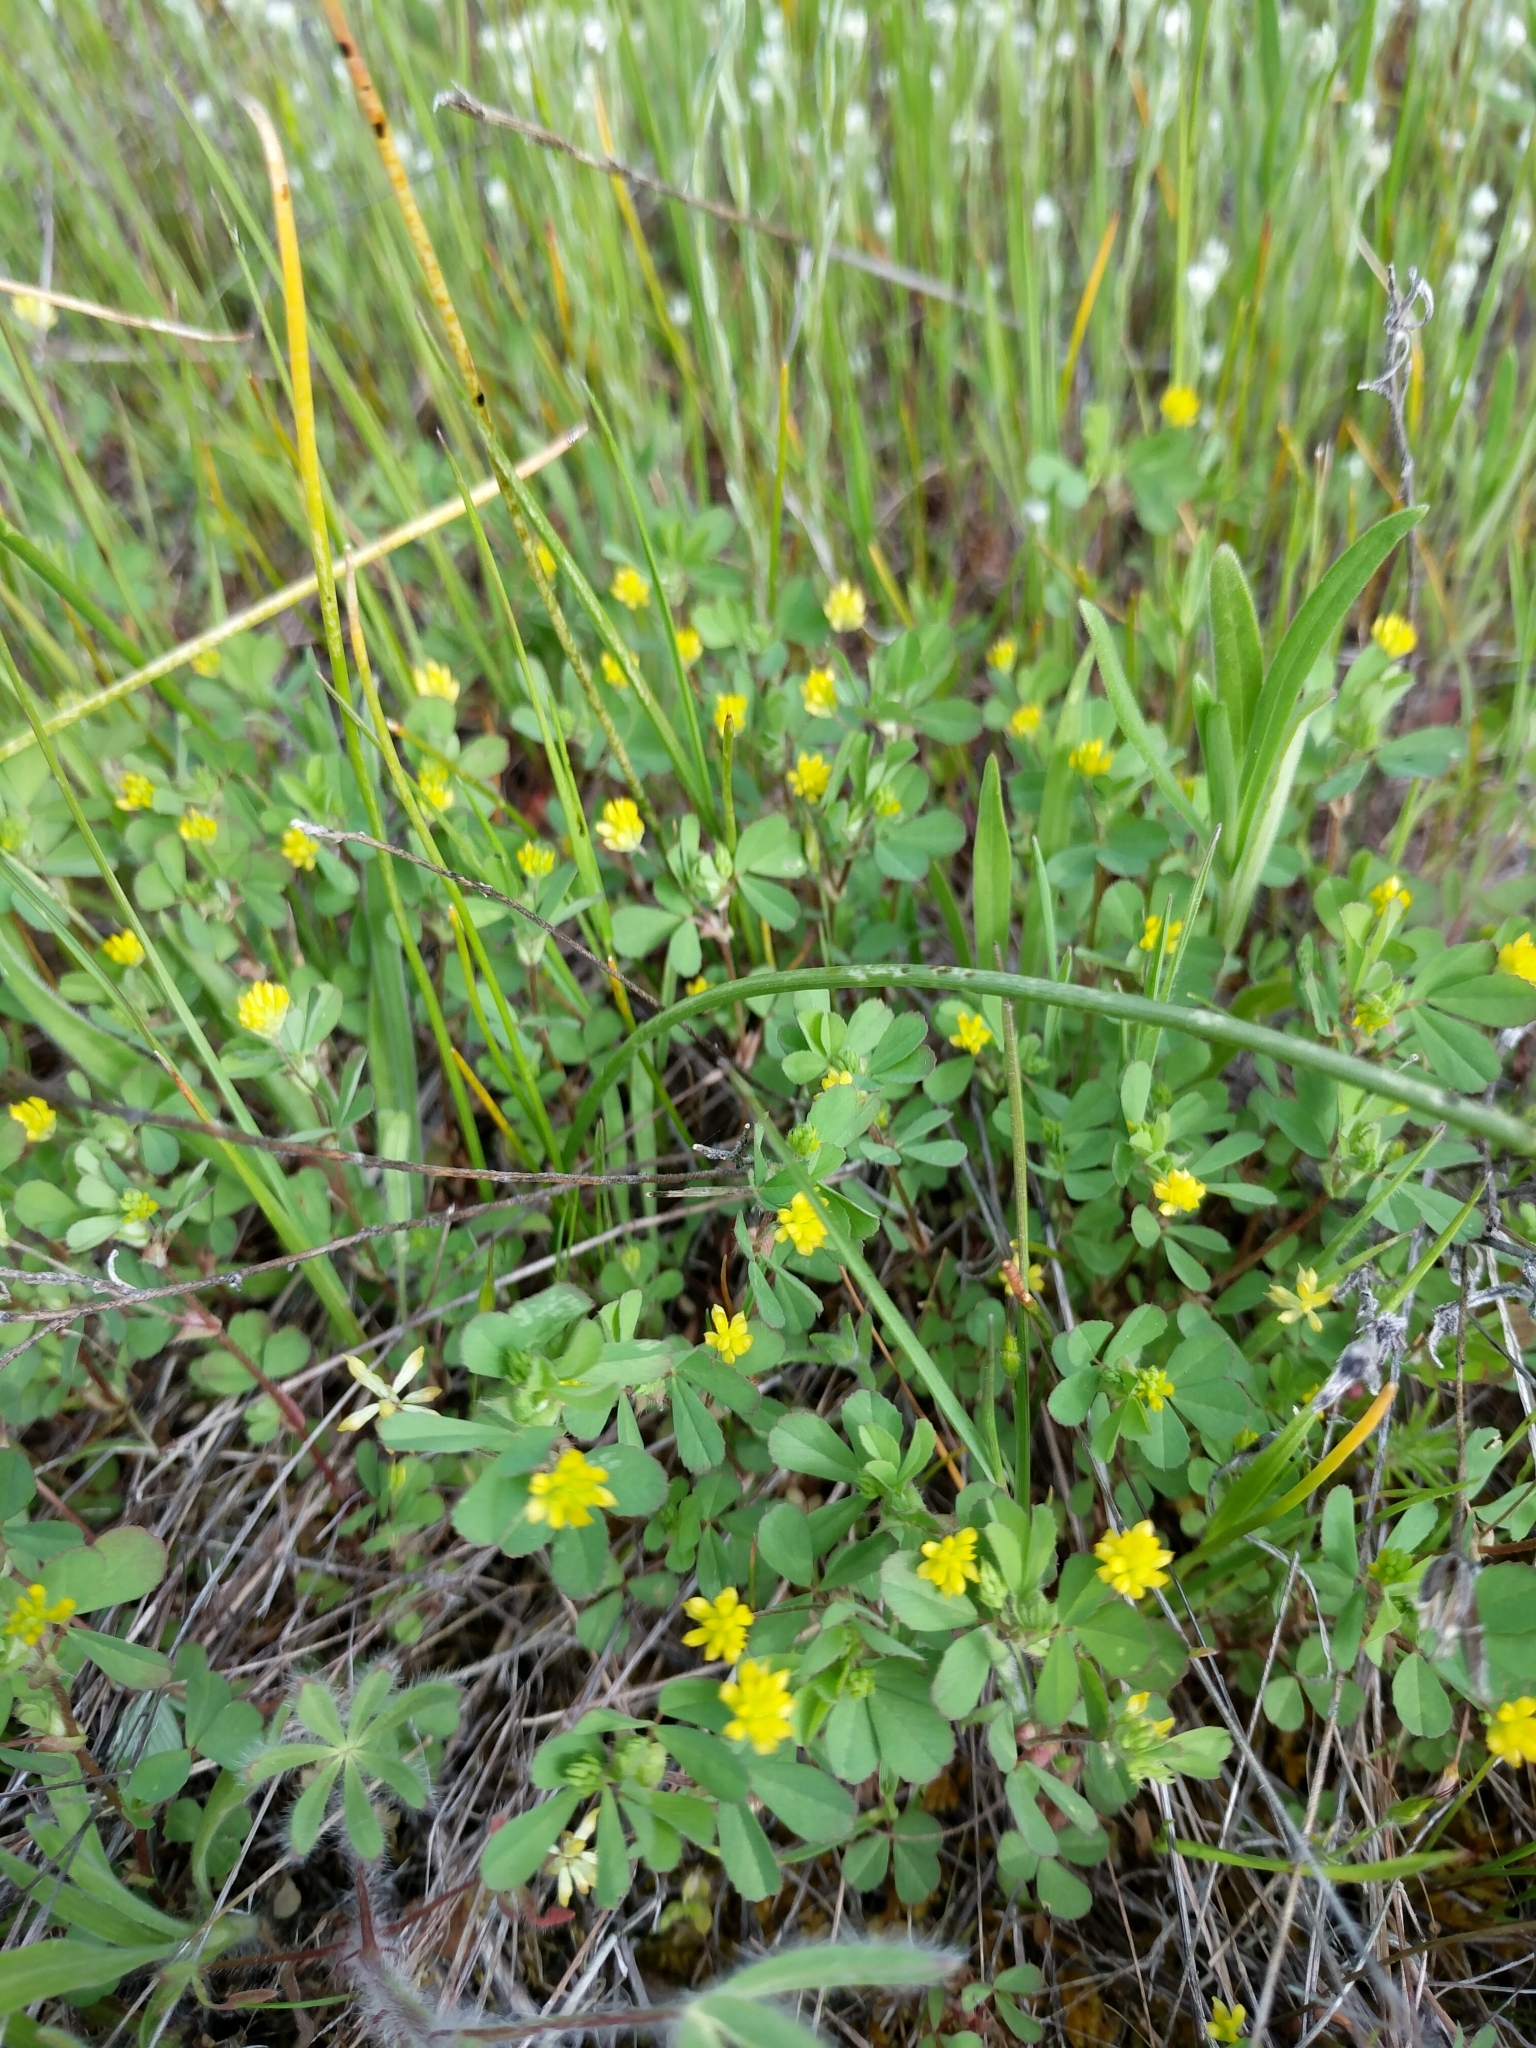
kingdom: Plantae
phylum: Tracheophyta
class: Magnoliopsida
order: Fabales
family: Fabaceae
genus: Trifolium
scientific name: Trifolium dubium
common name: Suckling clover
